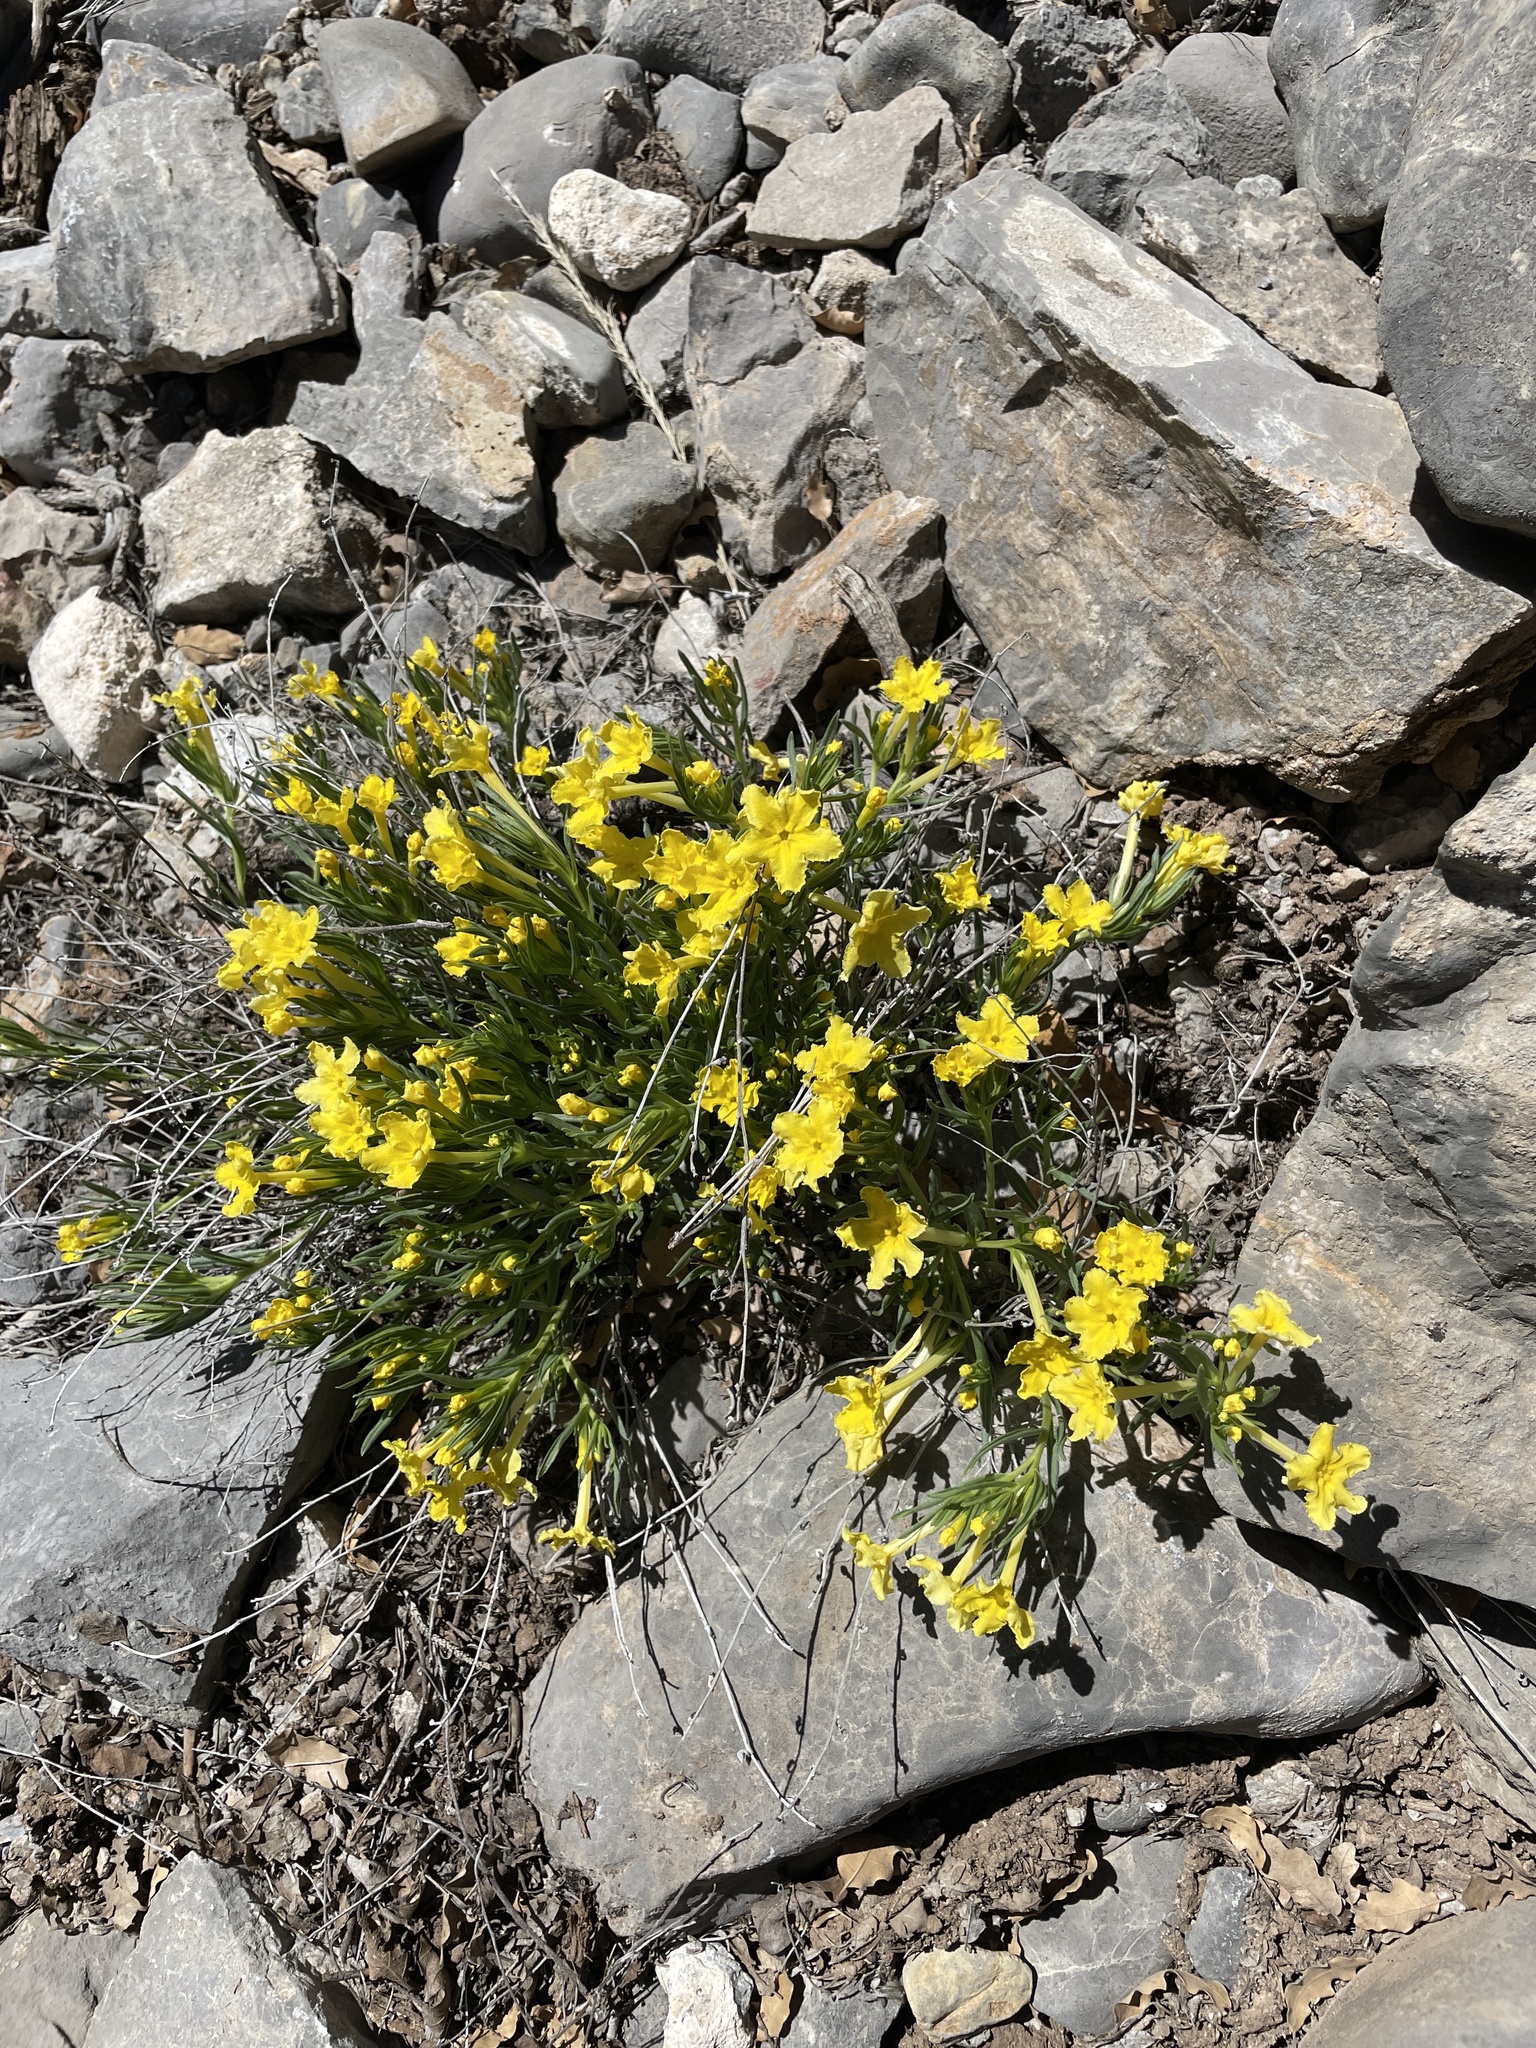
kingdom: Plantae
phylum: Tracheophyta
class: Magnoliopsida
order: Boraginales
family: Boraginaceae
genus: Lithospermum
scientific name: Lithospermum incisum
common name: Fringed gromwell
